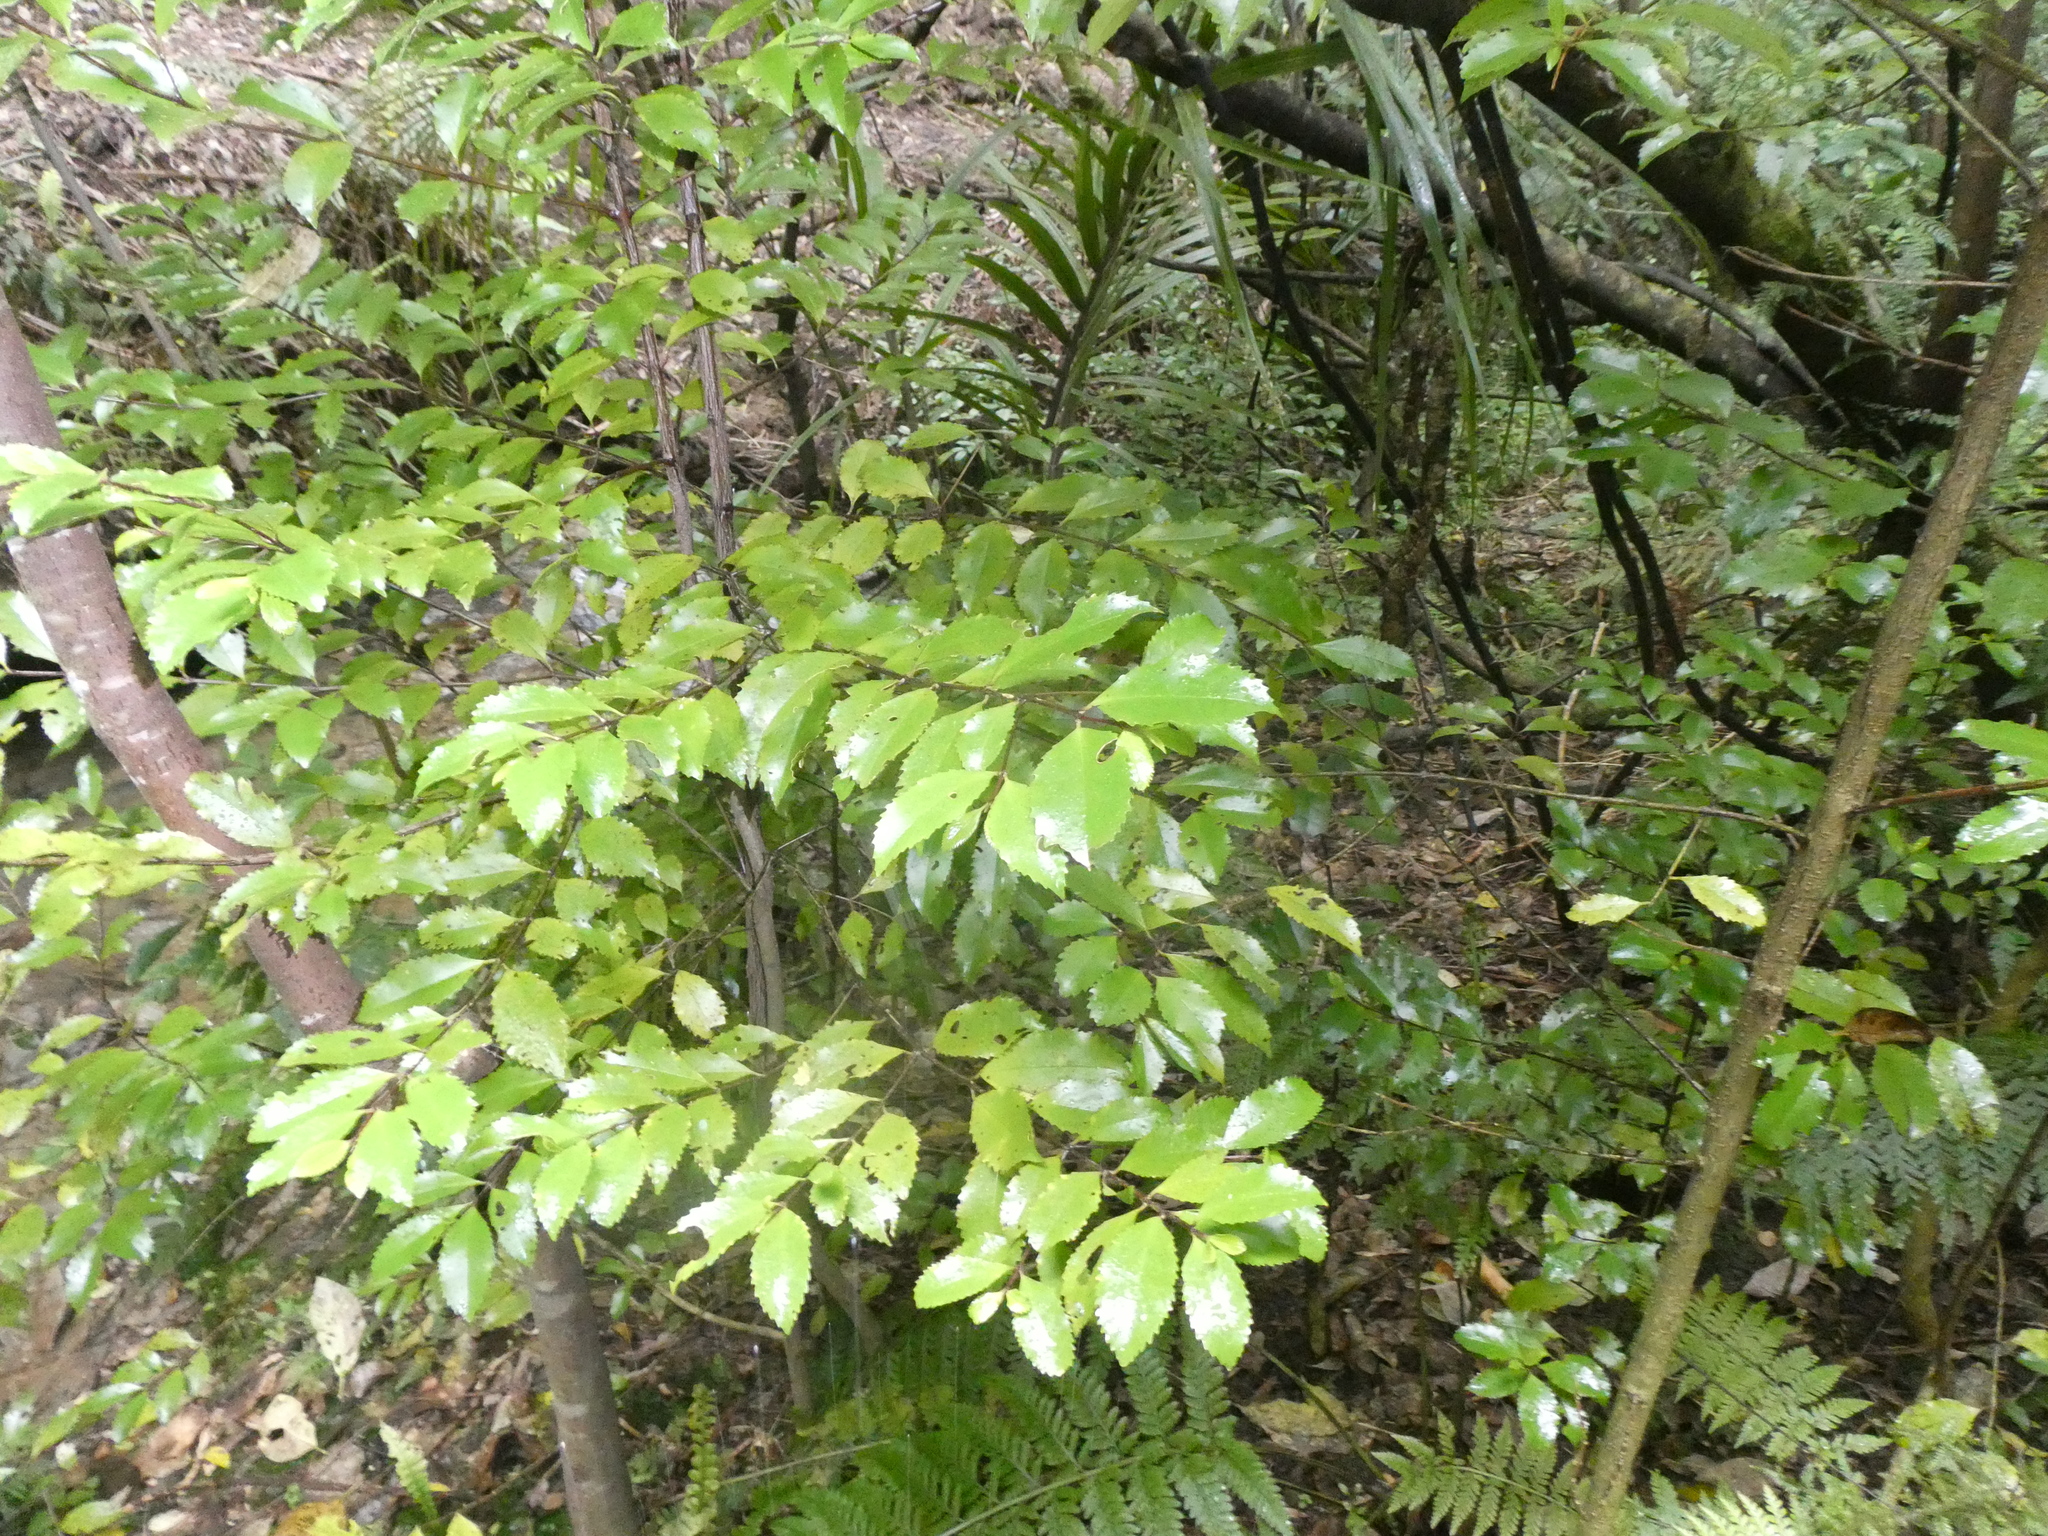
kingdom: Plantae
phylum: Tracheophyta
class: Magnoliopsida
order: Laurales
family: Atherospermataceae
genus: Laurelia
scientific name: Laurelia novae-zelandiae
